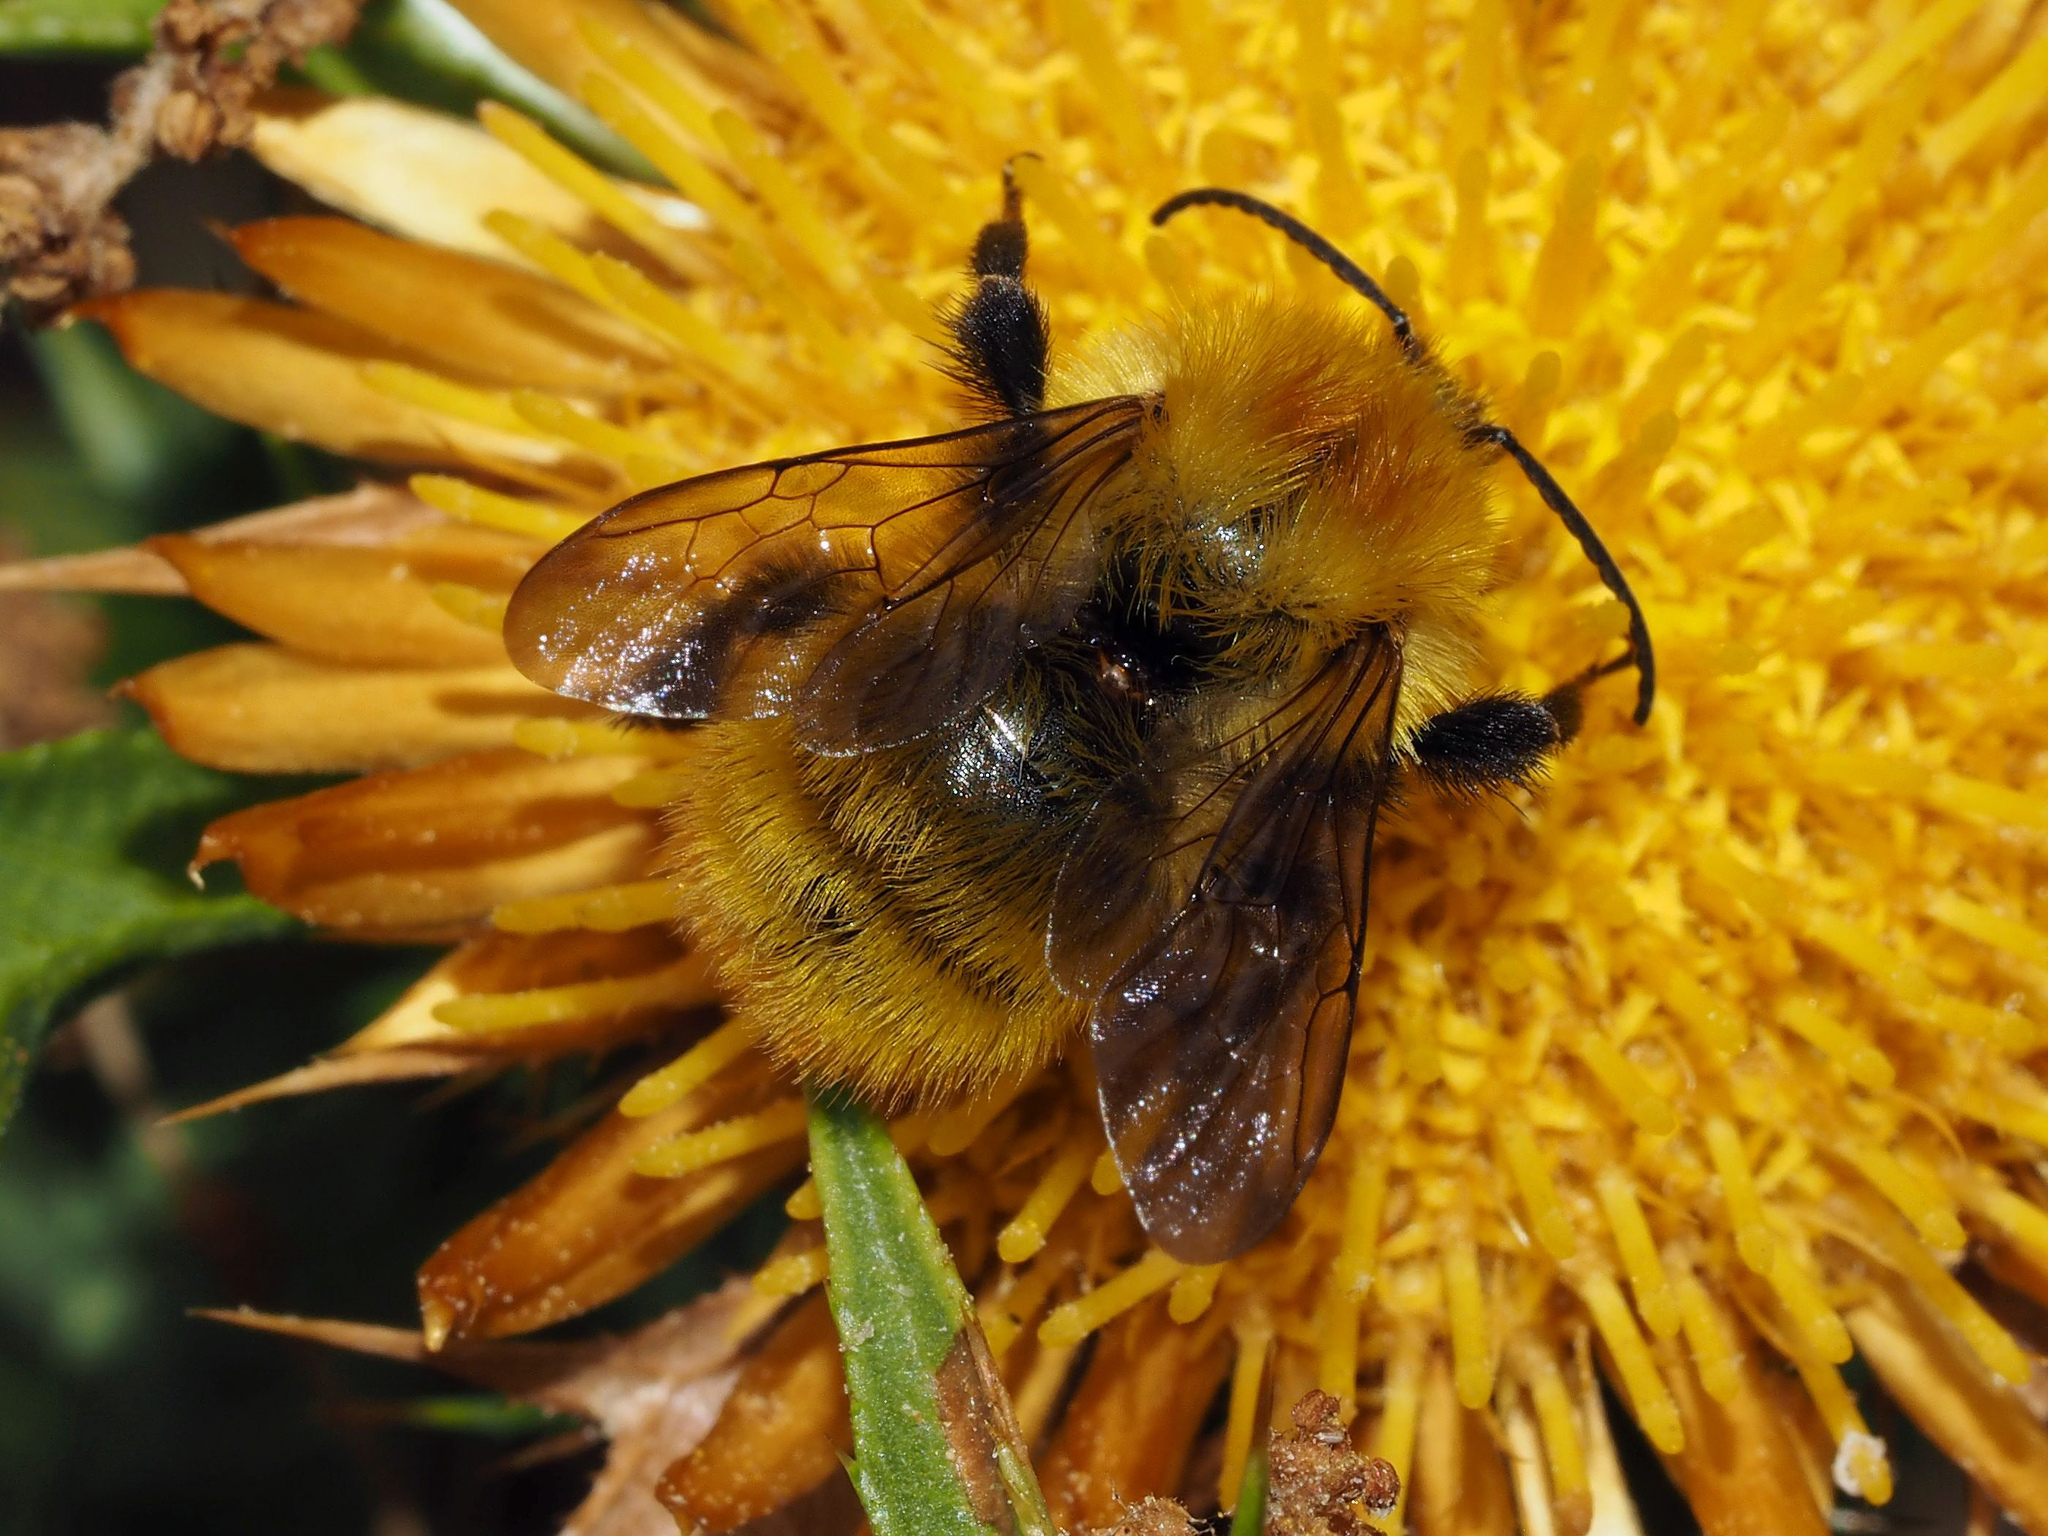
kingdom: Animalia
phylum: Arthropoda
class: Insecta
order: Hymenoptera
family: Apidae
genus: Bombus
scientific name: Bombus pascuorum
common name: Common carder bee
